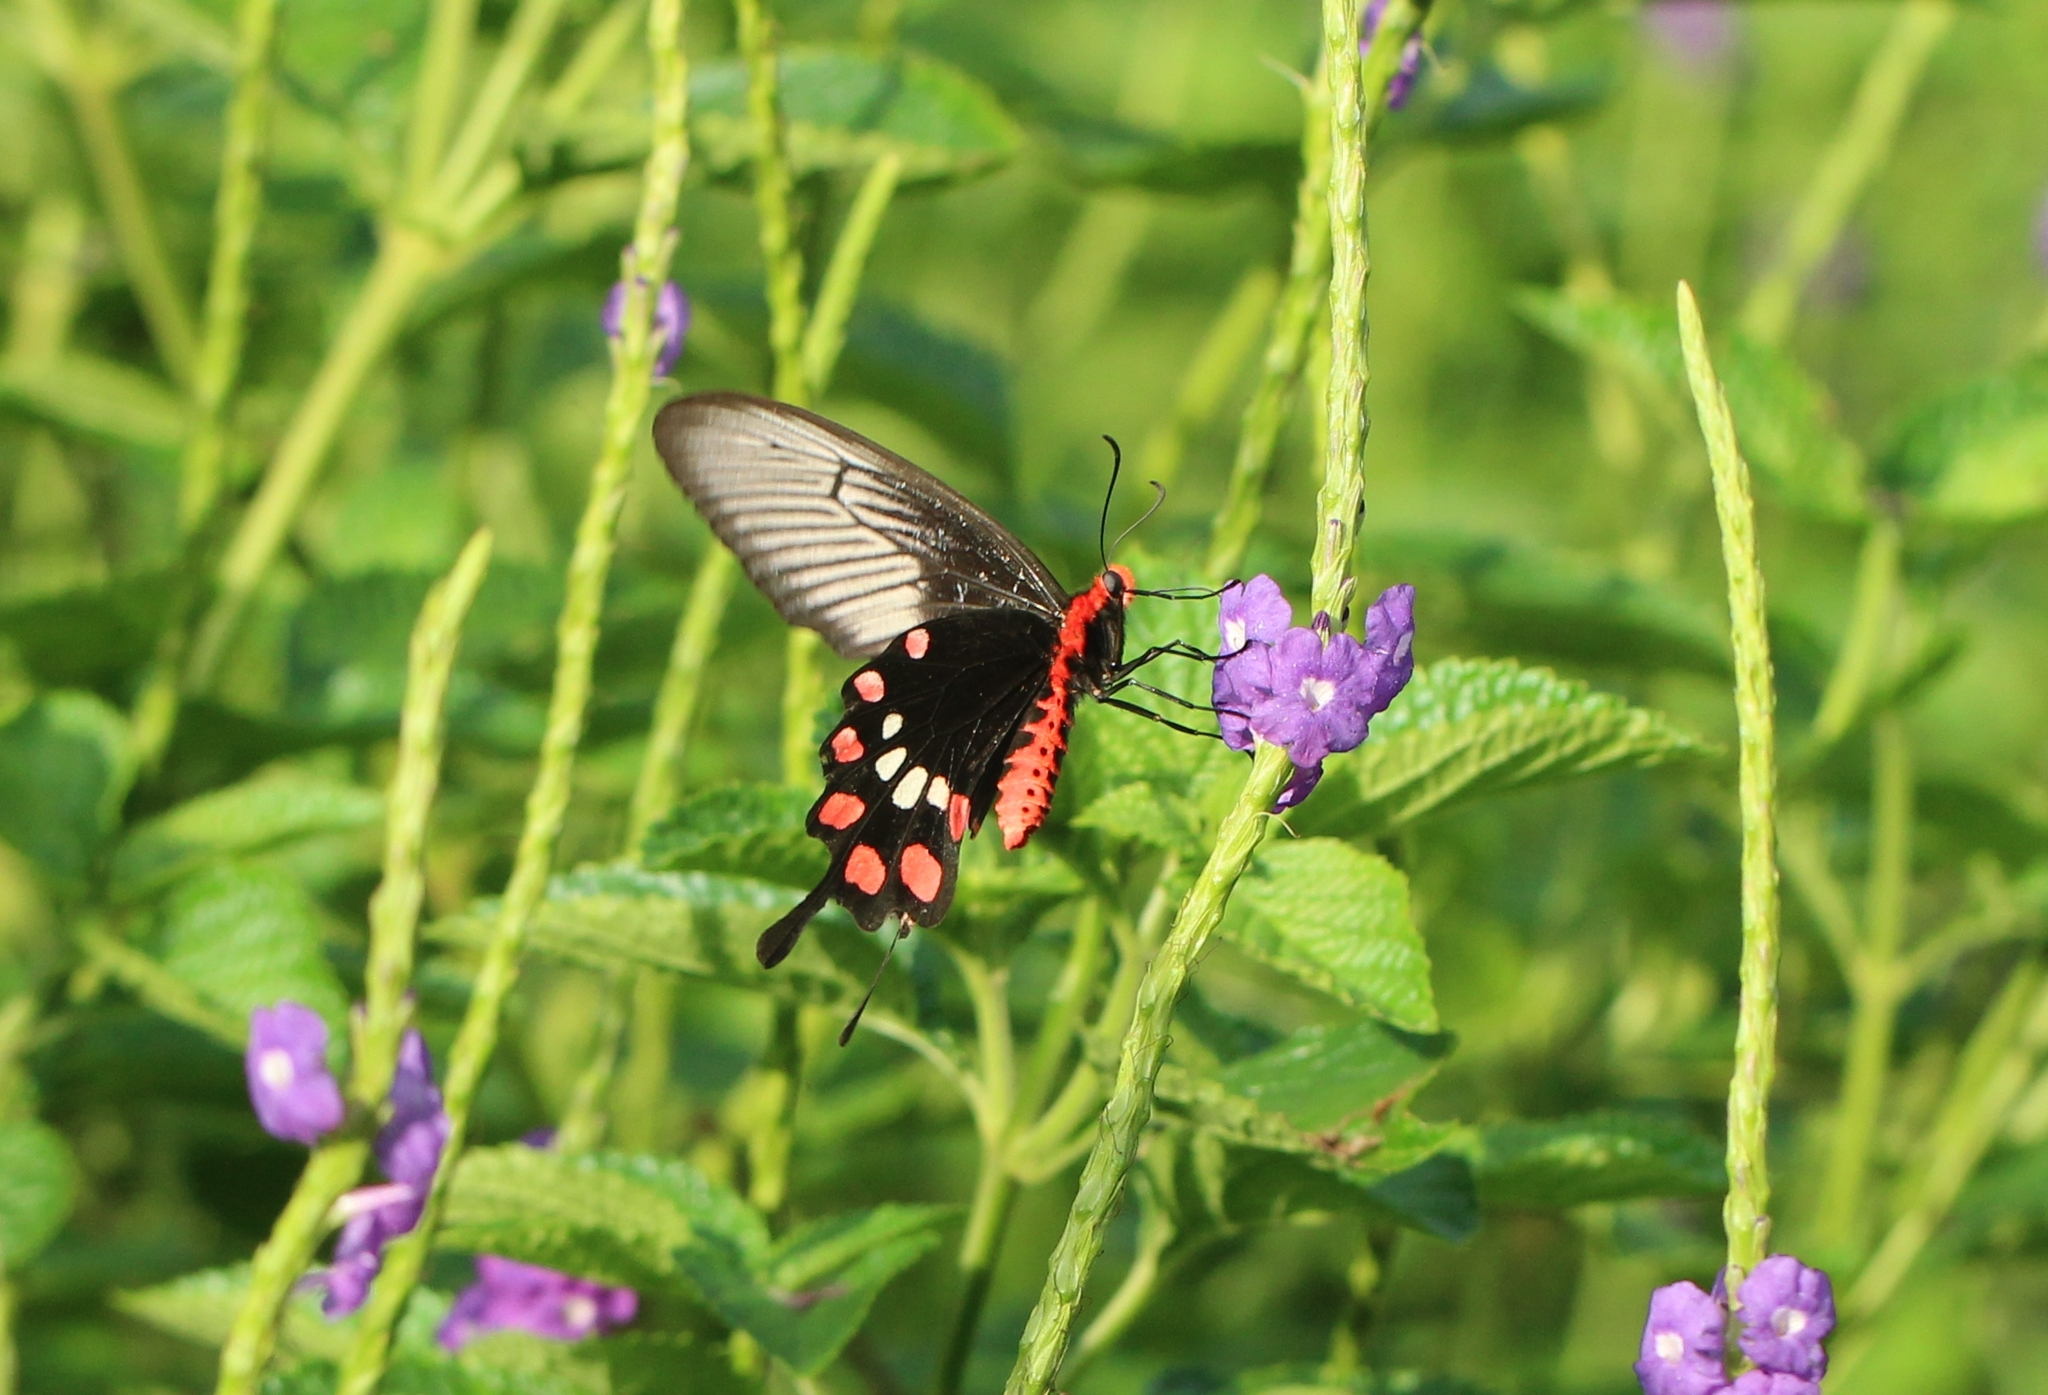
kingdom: Animalia
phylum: Arthropoda
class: Insecta
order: Lepidoptera
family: Papilionidae
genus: Pachliopta
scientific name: Pachliopta aristolochiae
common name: Common rose
